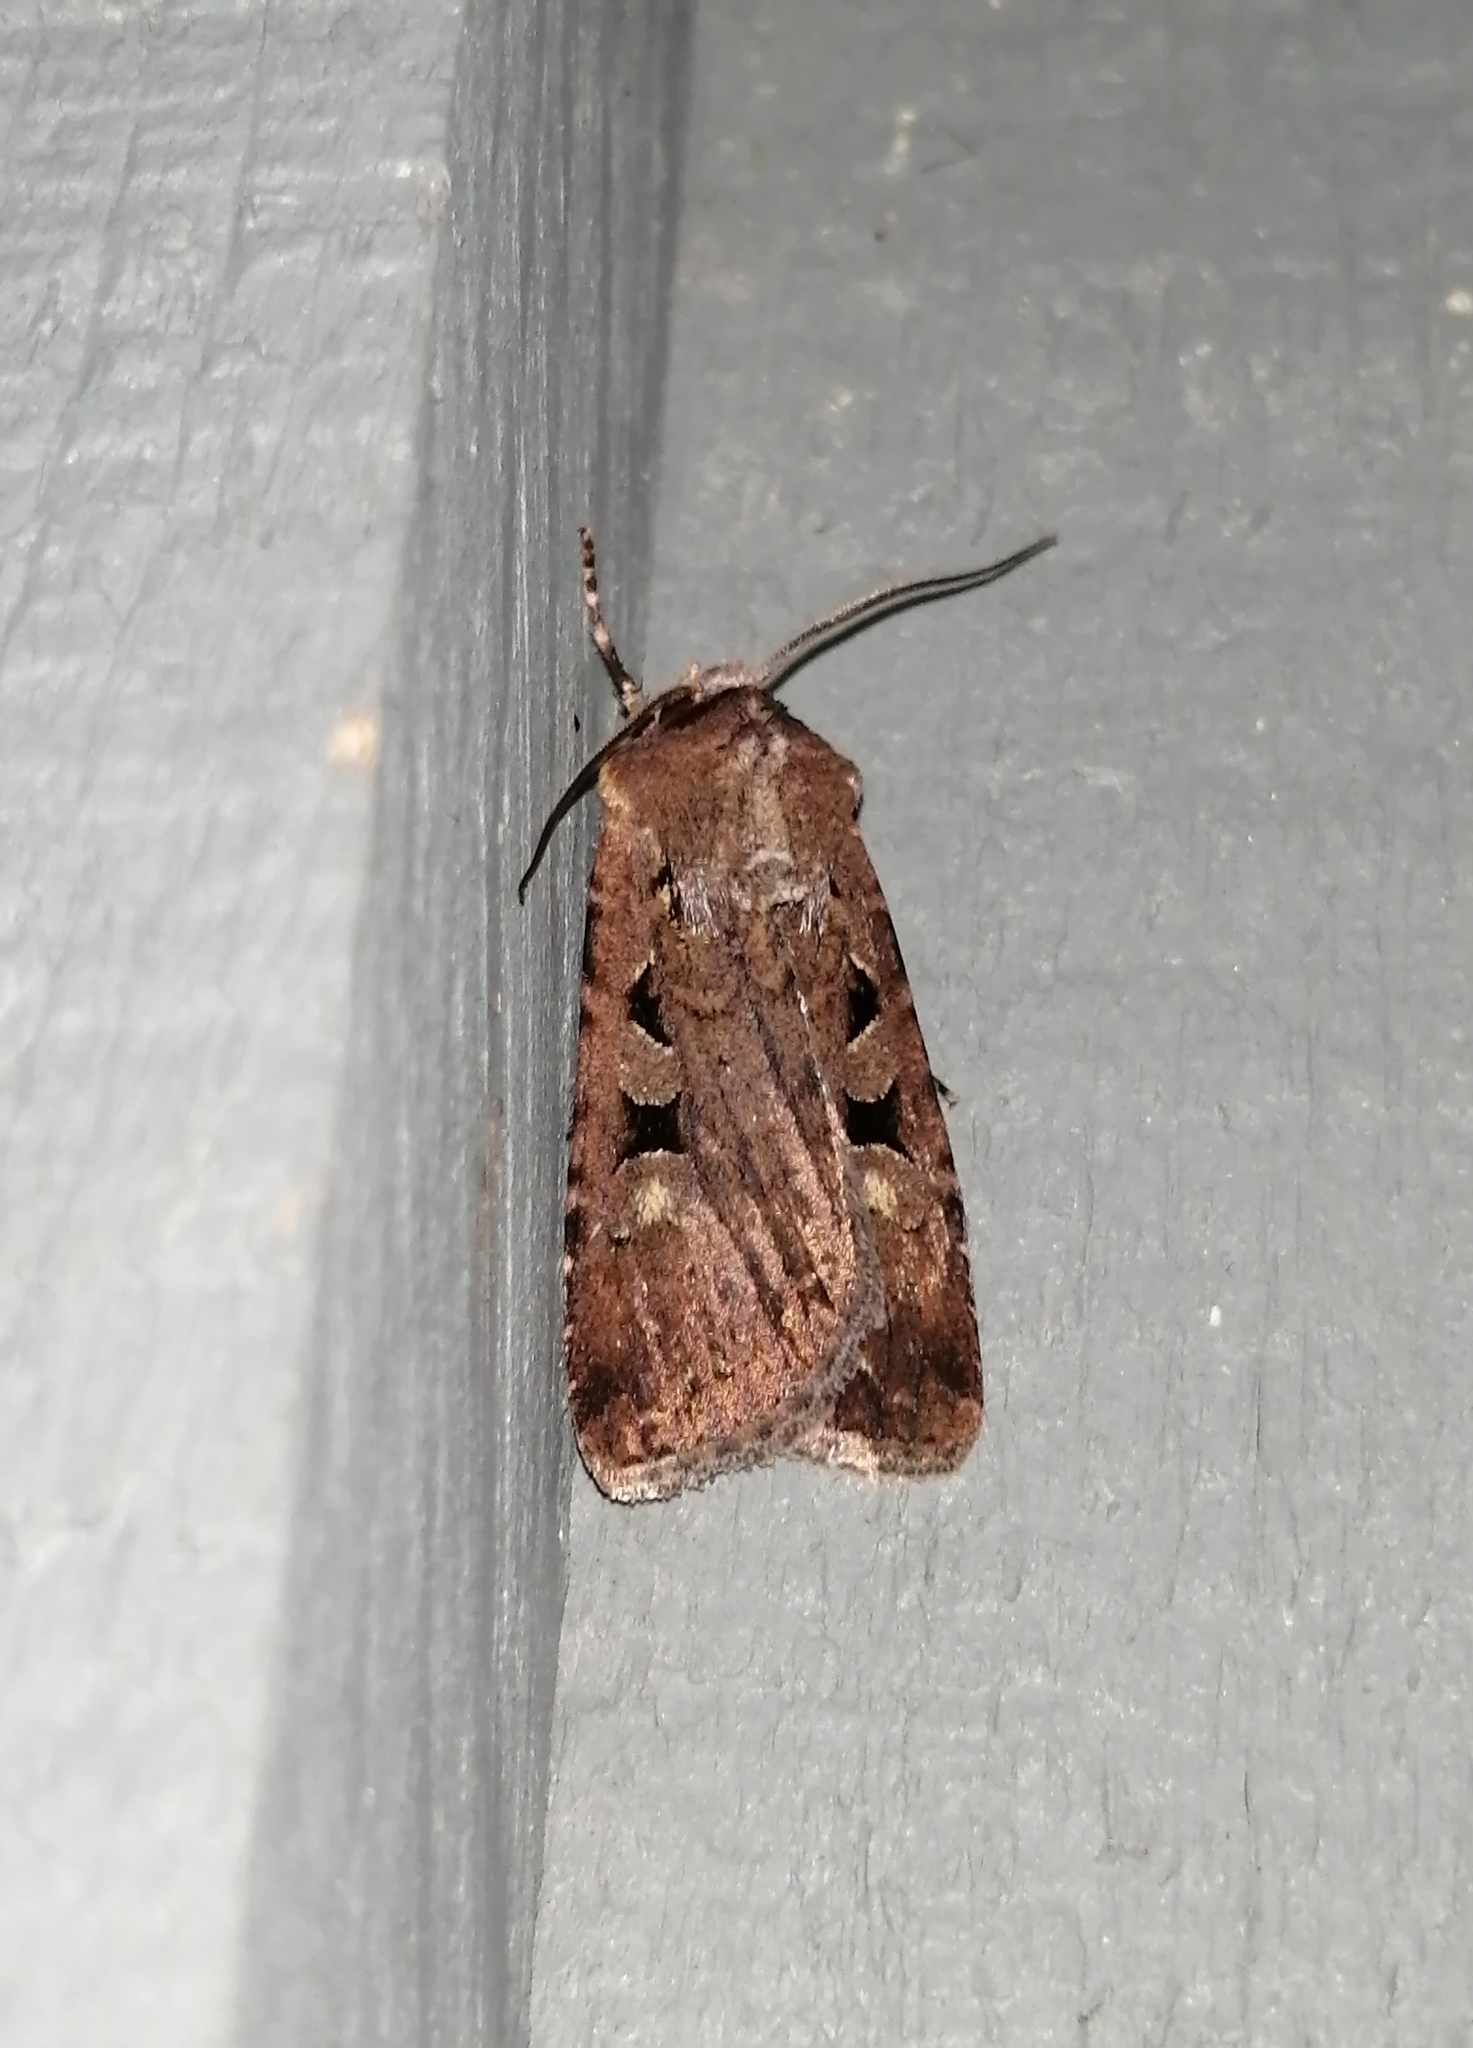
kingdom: Animalia
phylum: Arthropoda
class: Insecta
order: Lepidoptera
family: Noctuidae
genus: Euxoa
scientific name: Euxoa tessellata
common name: Striped cutworm
